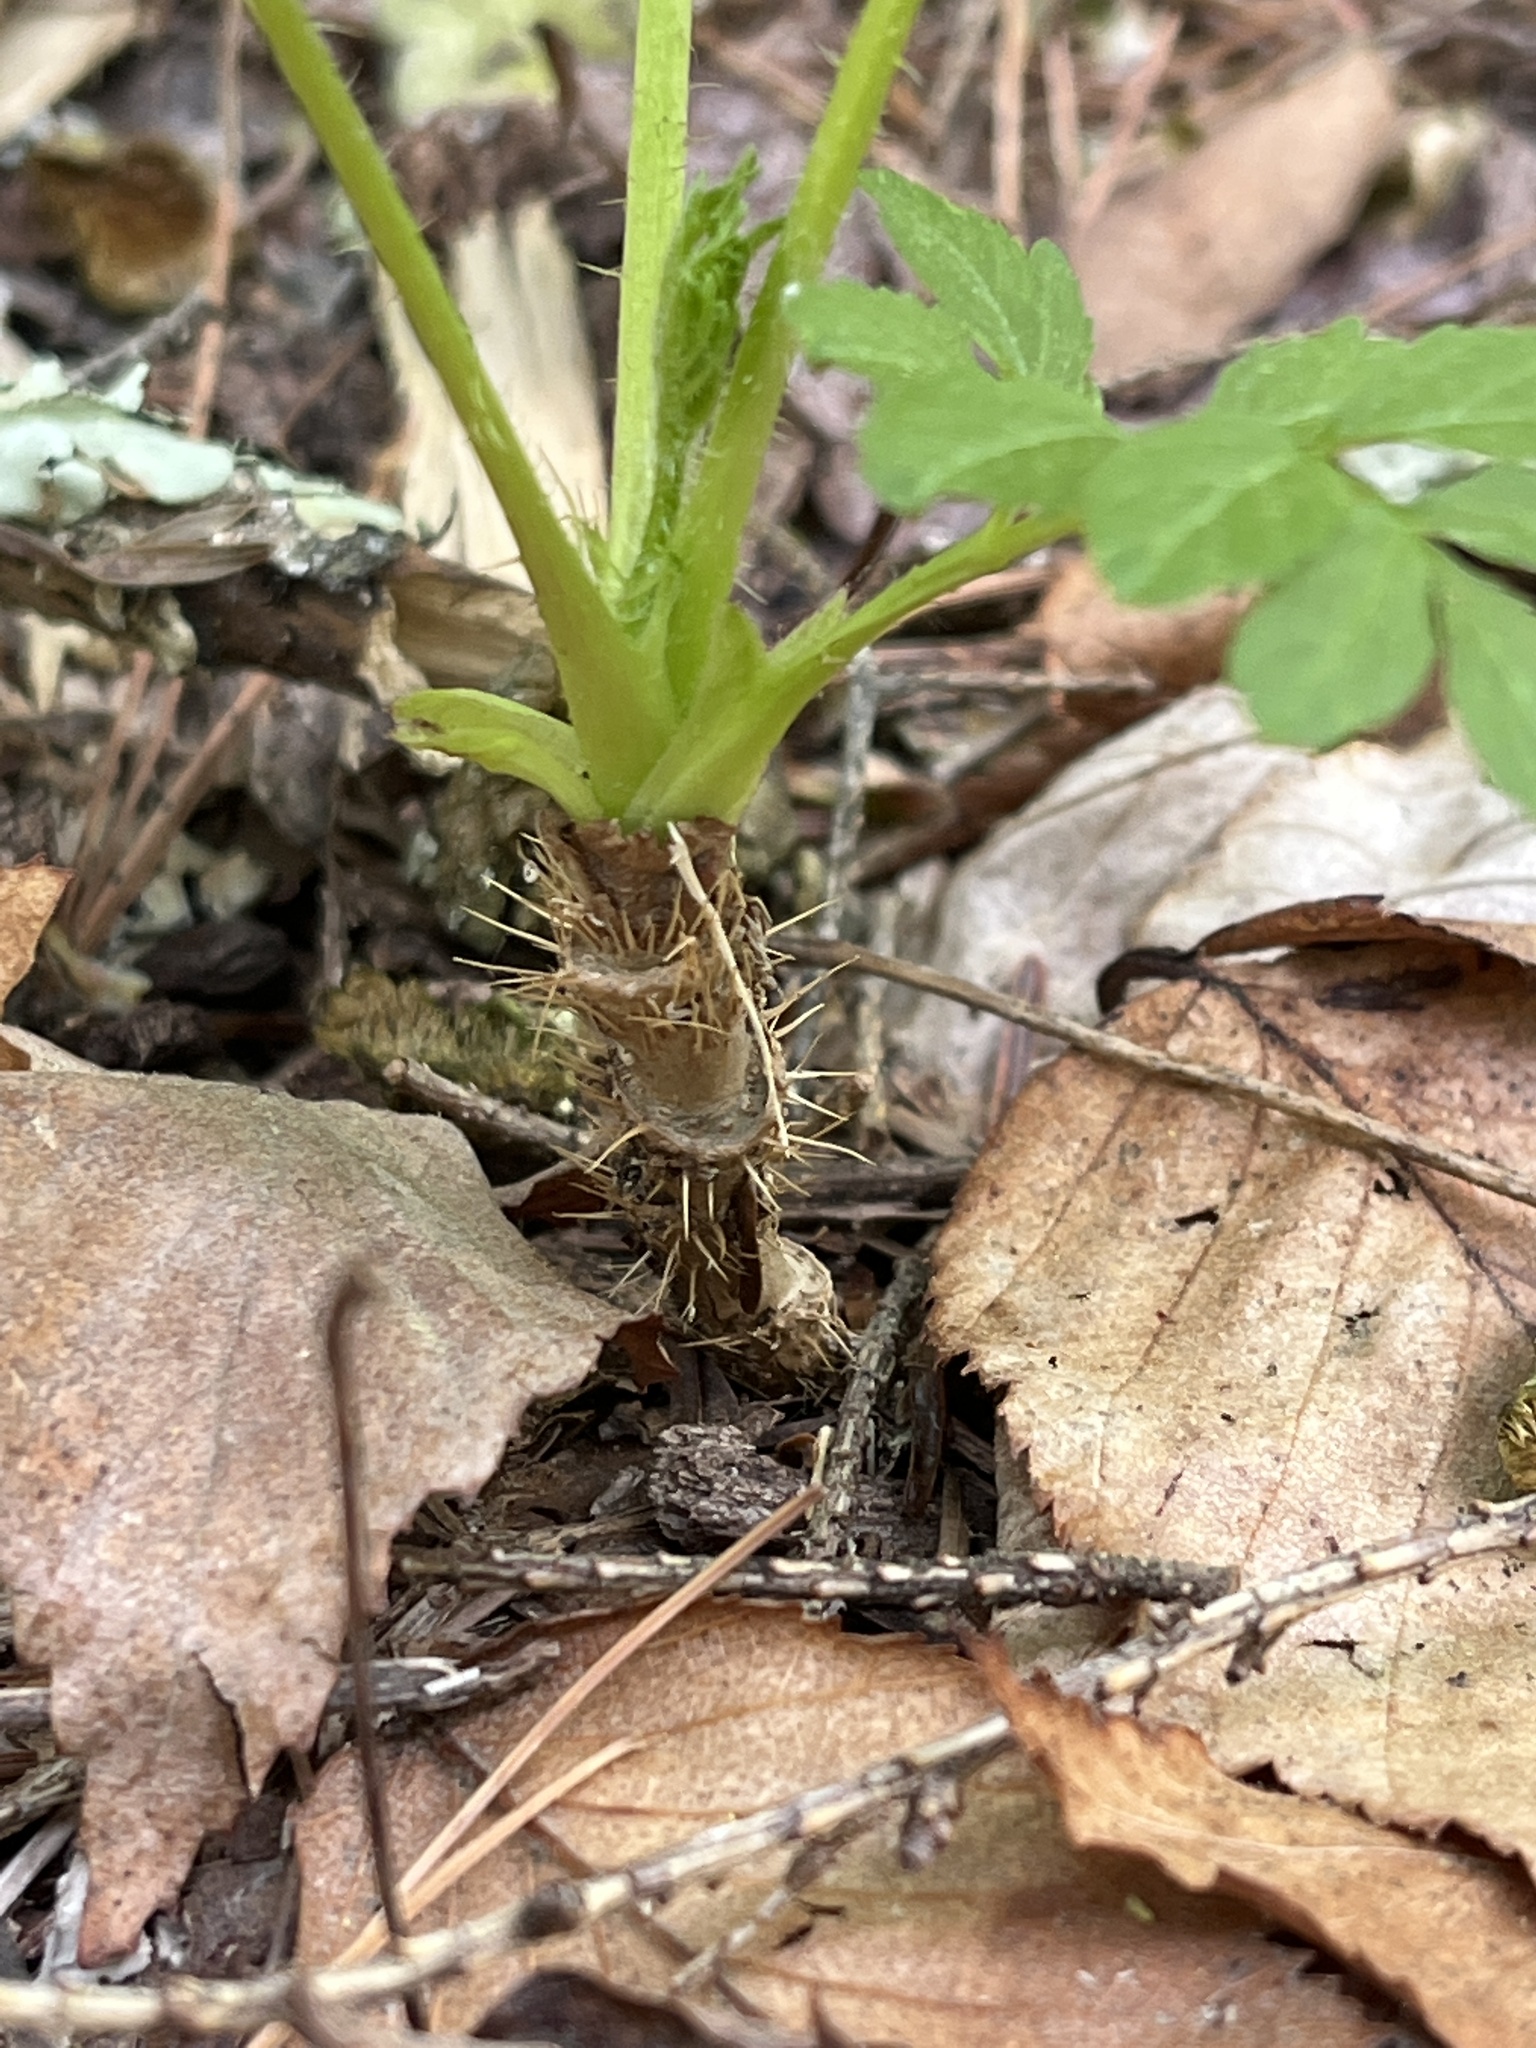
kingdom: Plantae
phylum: Tracheophyta
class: Magnoliopsida
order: Apiales
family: Araliaceae
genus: Aralia
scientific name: Aralia hispida
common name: Bristly sarsaparilla
